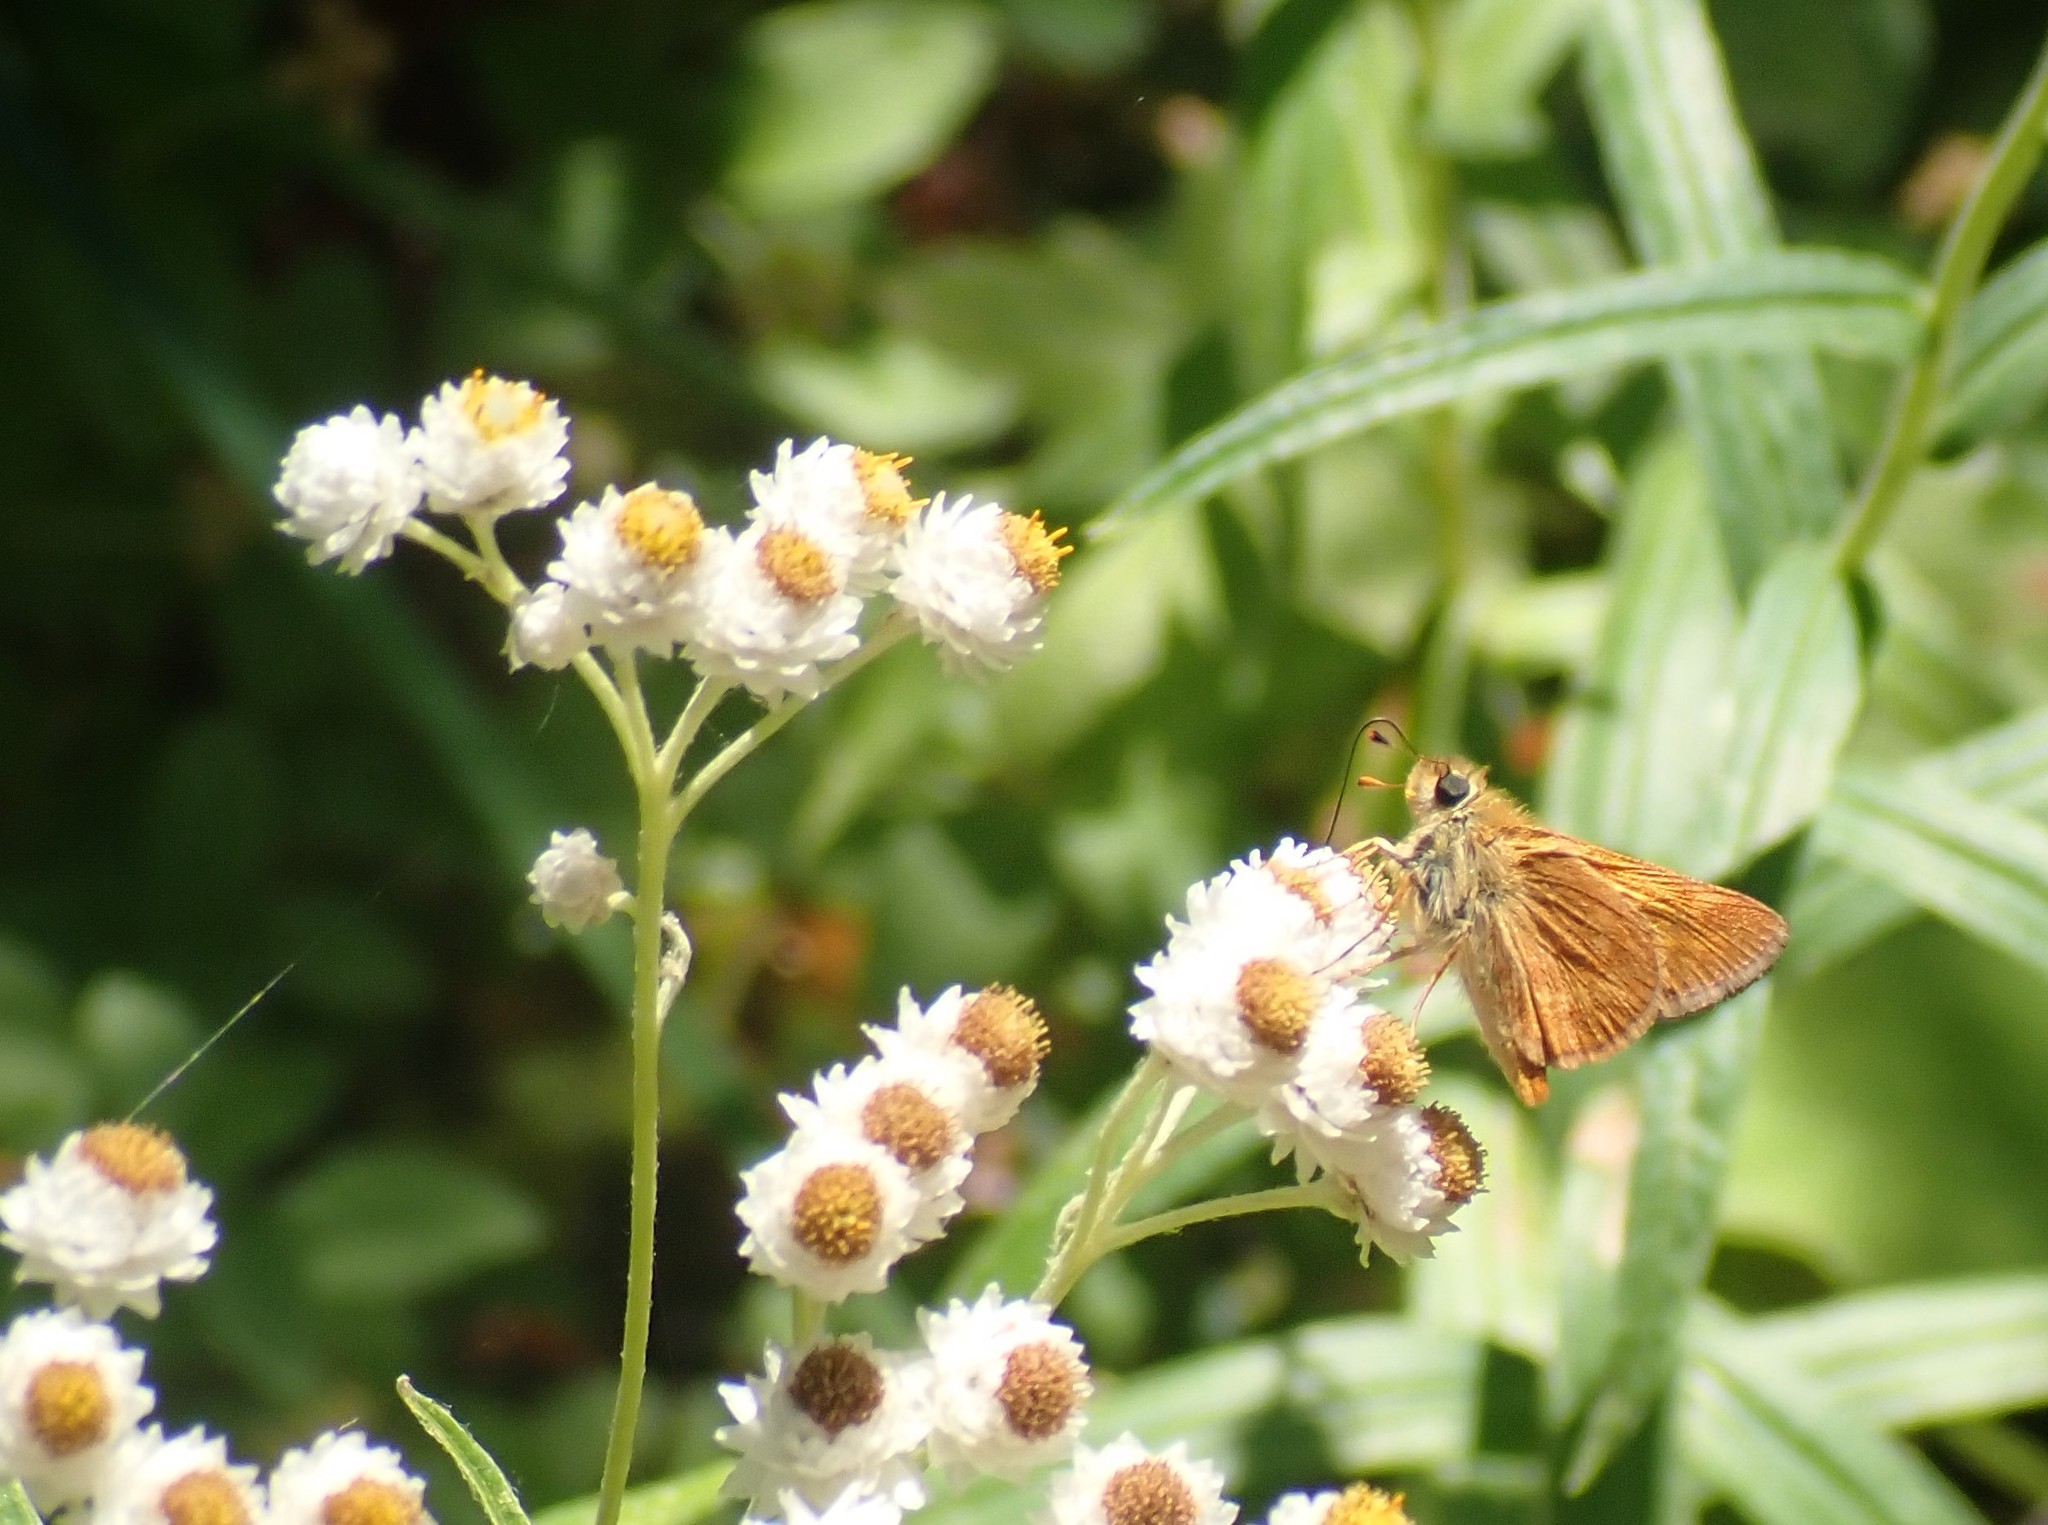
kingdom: Animalia
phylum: Arthropoda
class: Insecta
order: Lepidoptera
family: Hesperiidae
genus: Ochlodes
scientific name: Ochlodes sylvanoides
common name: Woodland skipper
